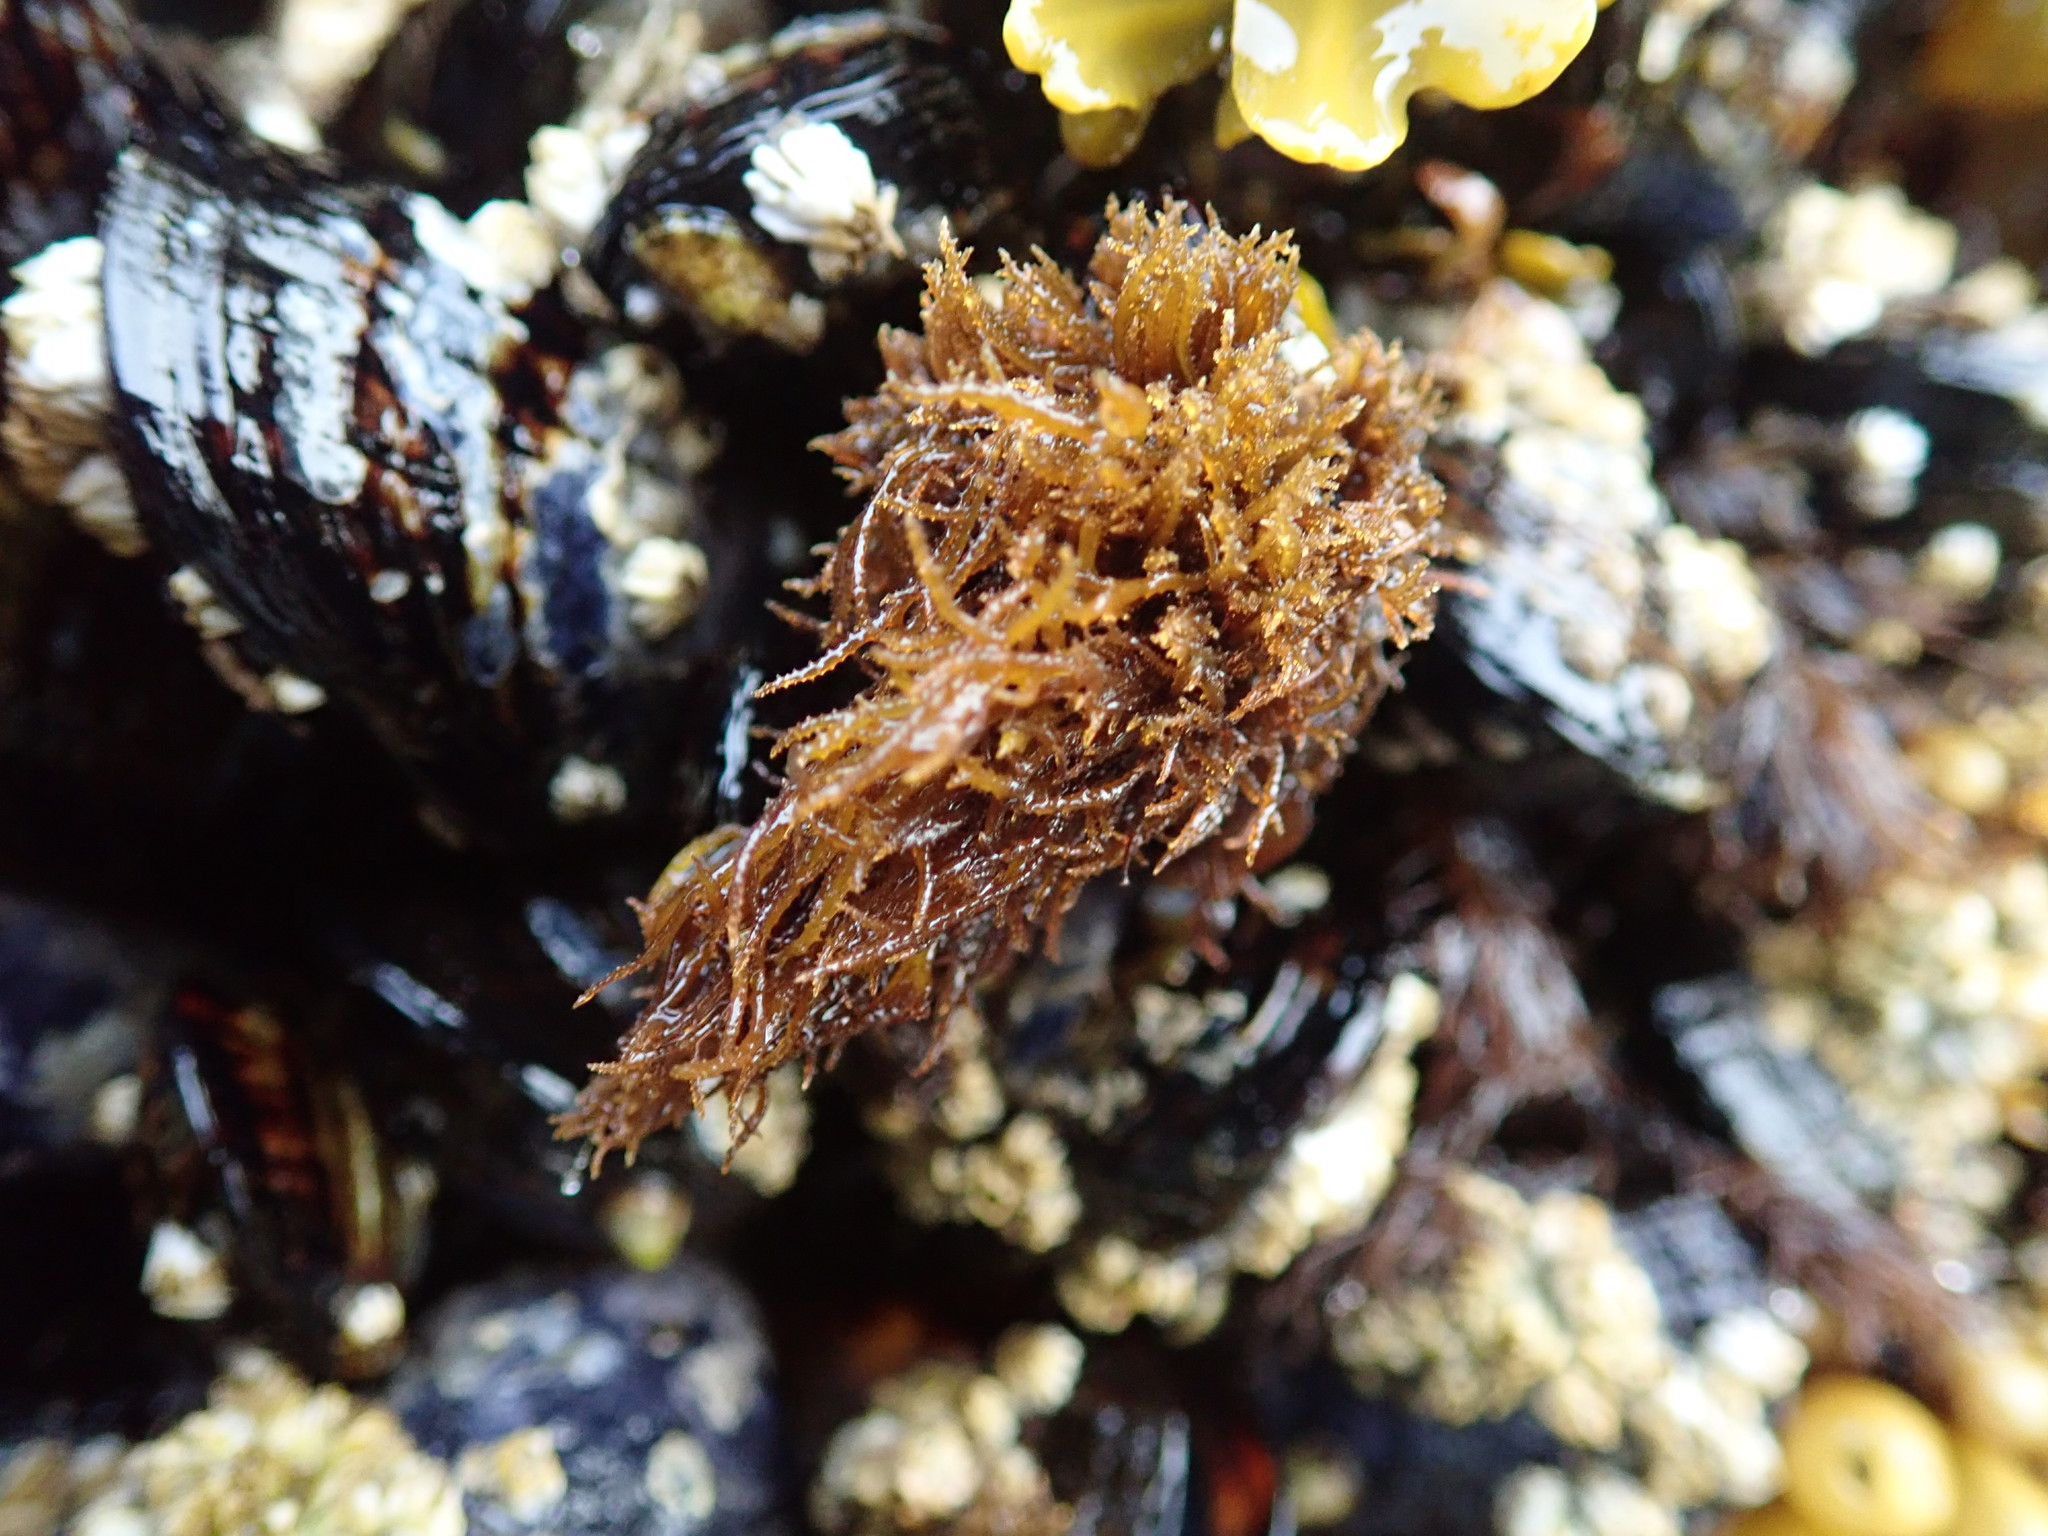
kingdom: Plantae
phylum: Rhodophyta
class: Florideophyceae
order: Gigartinales
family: Endocladiaceae
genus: Endocladia
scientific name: Endocladia muricata
